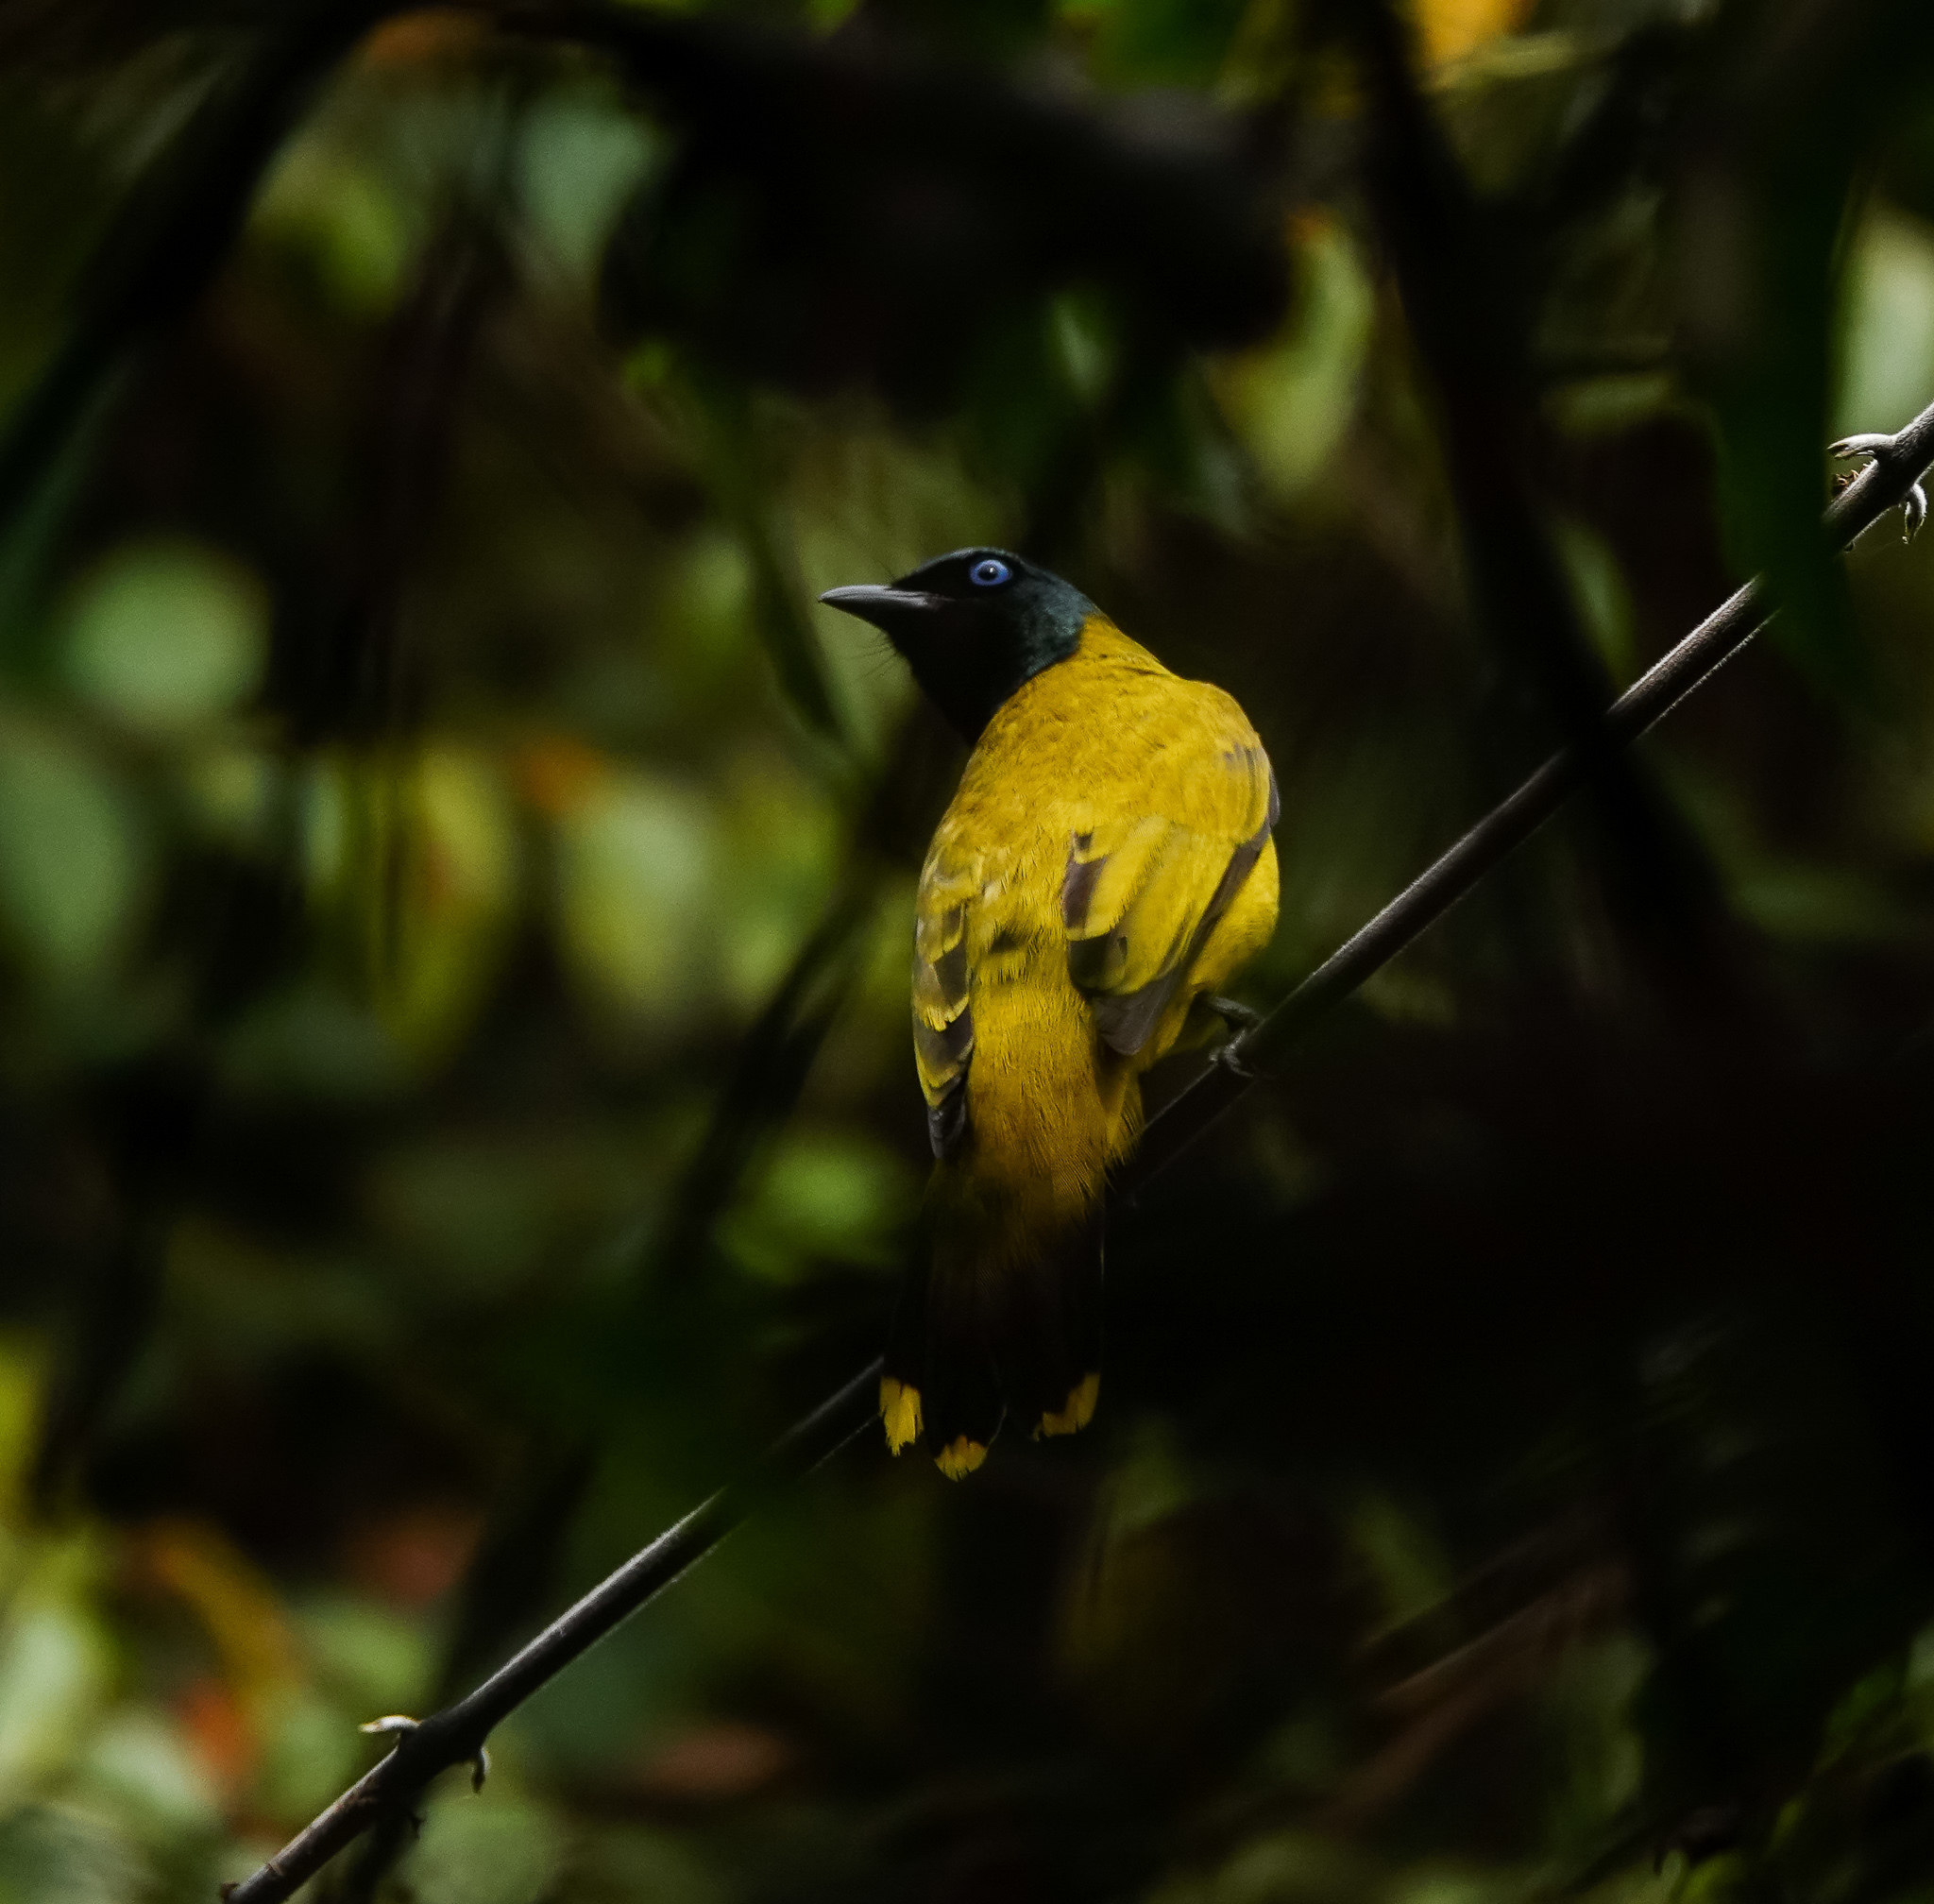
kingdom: Animalia
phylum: Chordata
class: Aves
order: Passeriformes
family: Pycnonotidae
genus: Microtarsus
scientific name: Microtarsus
